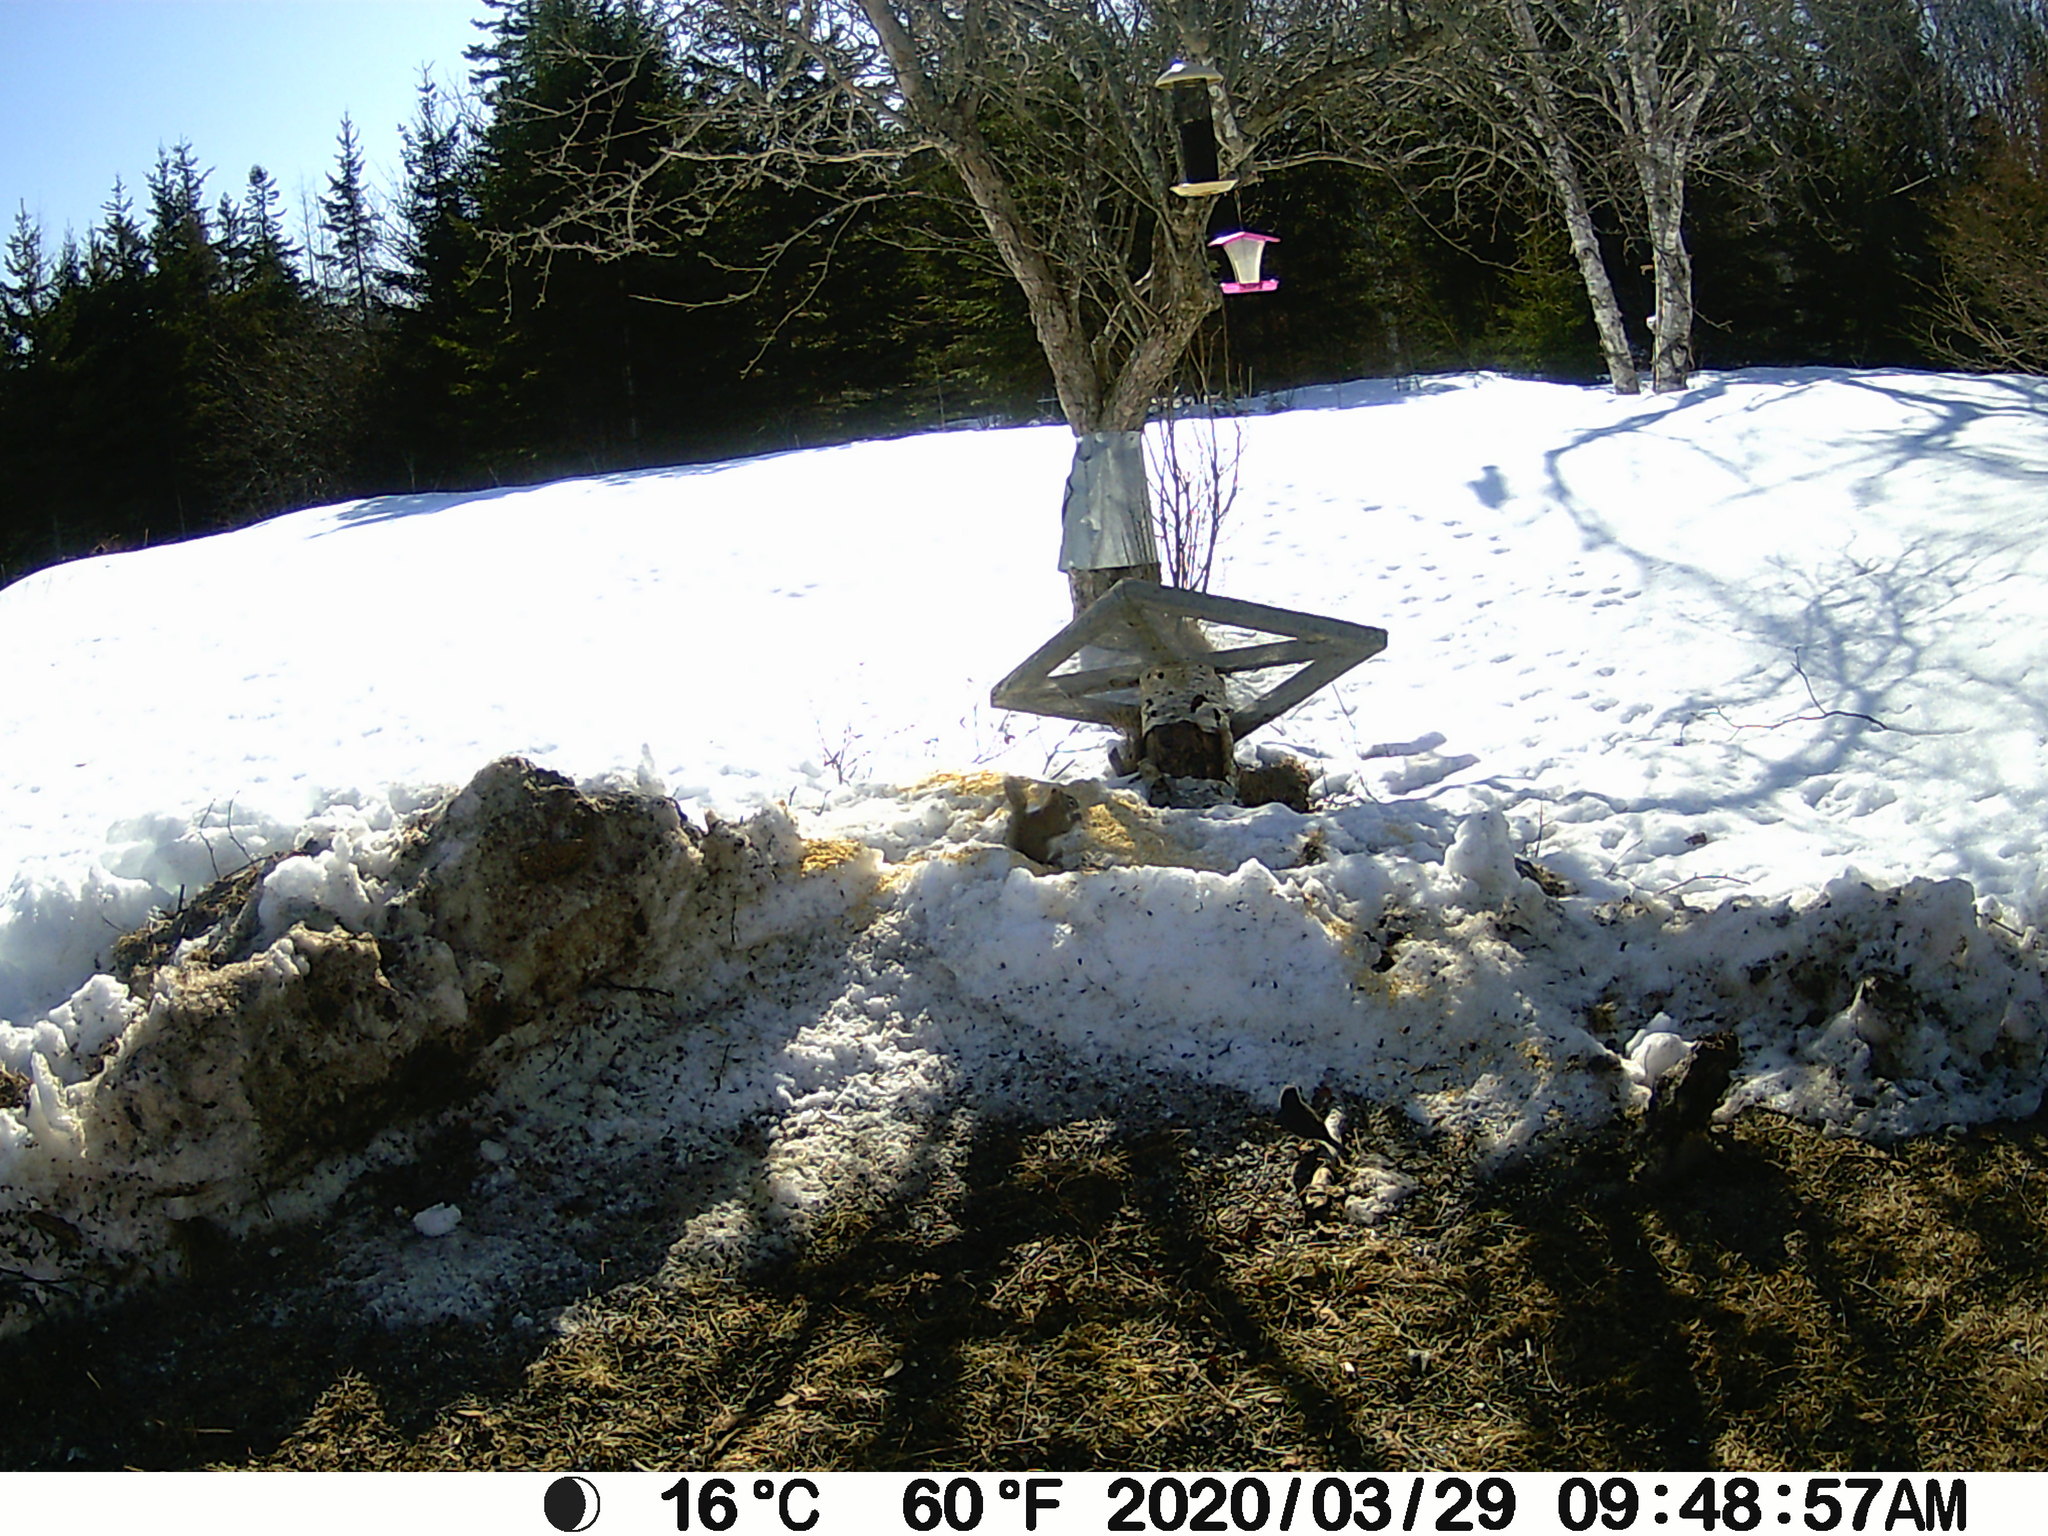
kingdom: Animalia
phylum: Chordata
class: Mammalia
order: Rodentia
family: Sciuridae
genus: Tamiasciurus
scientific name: Tamiasciurus hudsonicus
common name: Red squirrel
